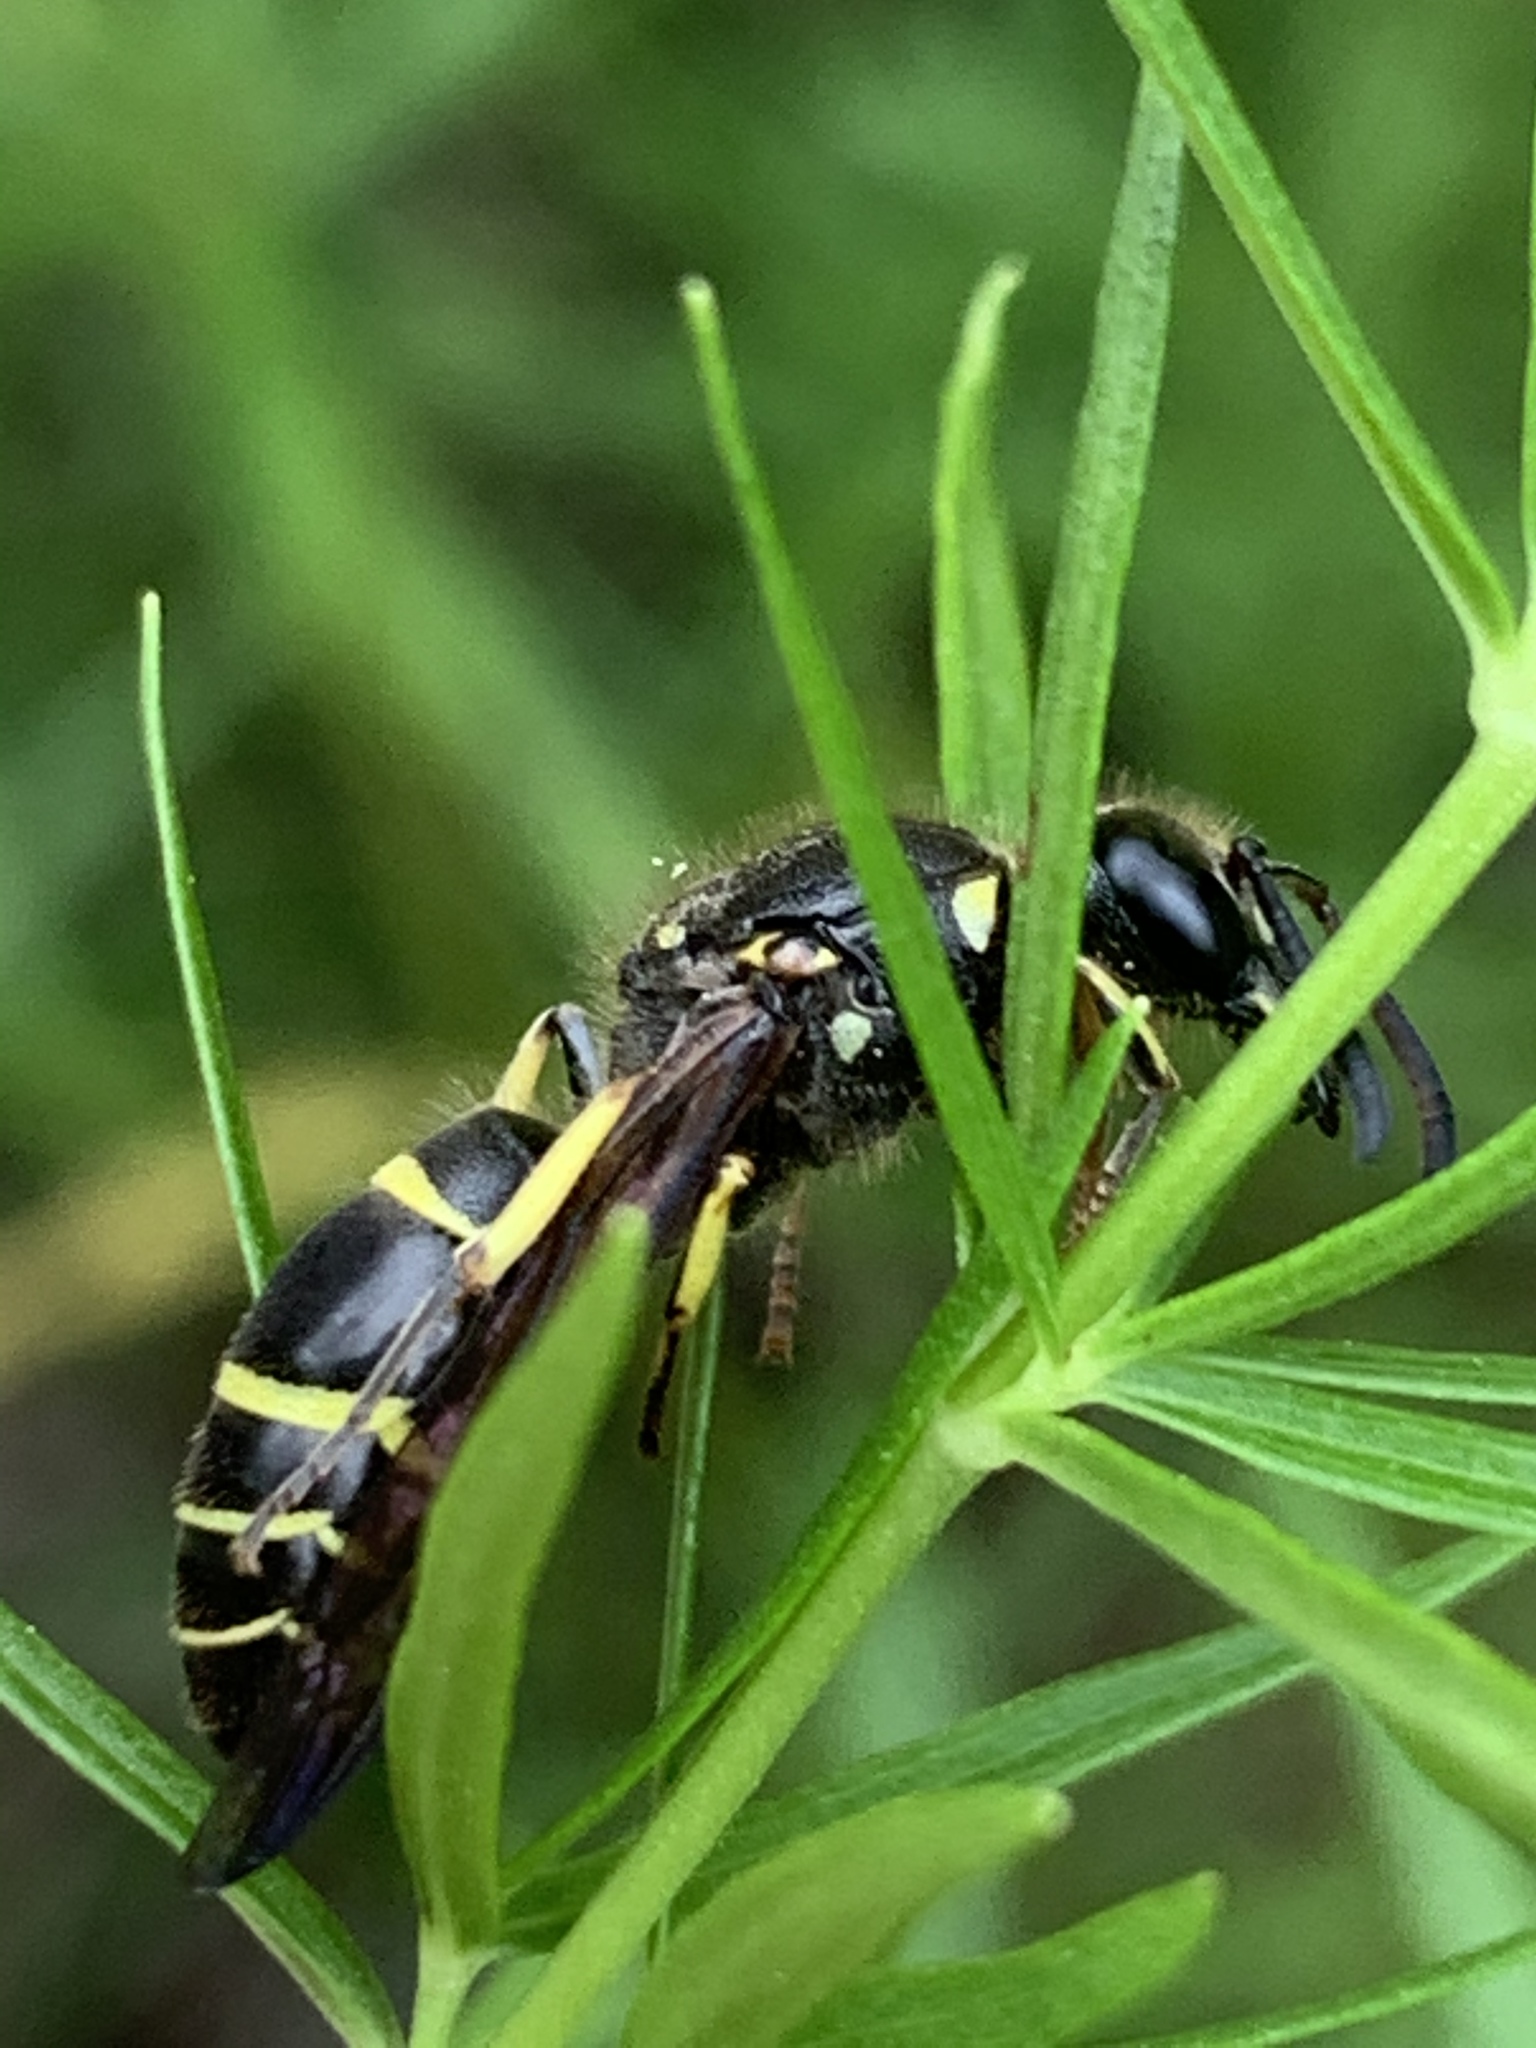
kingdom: Animalia
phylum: Arthropoda
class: Insecta
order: Hymenoptera
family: Vespidae
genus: Ancistrocerus
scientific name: Ancistrocerus
